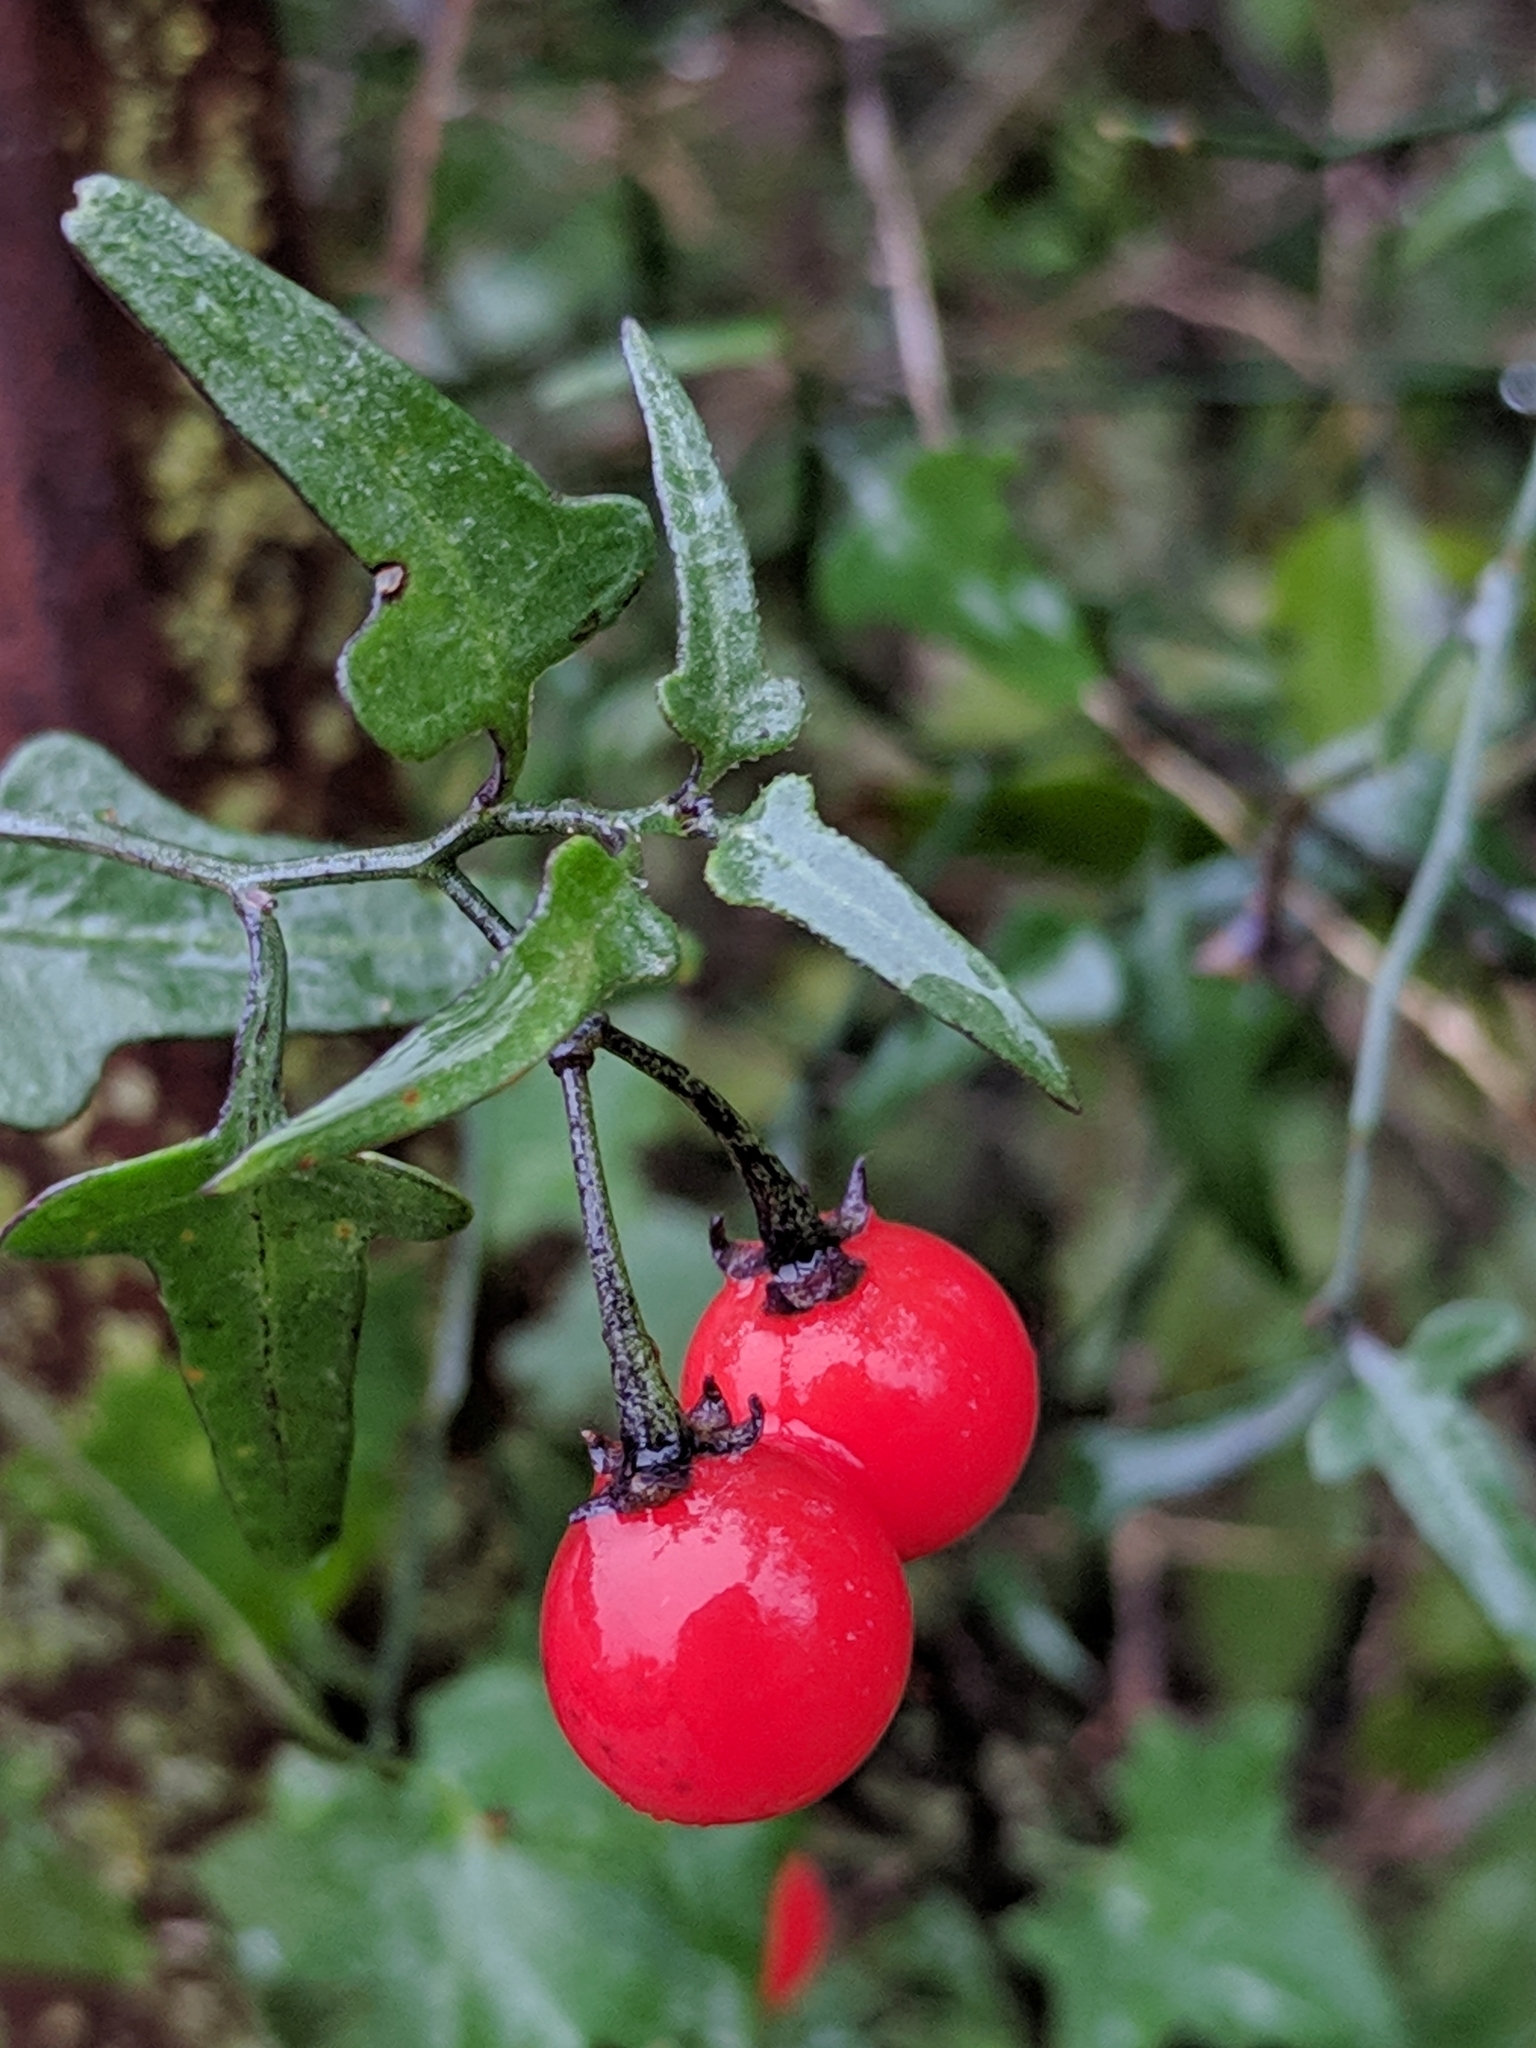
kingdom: Plantae
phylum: Tracheophyta
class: Magnoliopsida
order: Solanales
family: Solanaceae
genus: Solanum
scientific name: Solanum triquetrum
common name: Texas nightshade
